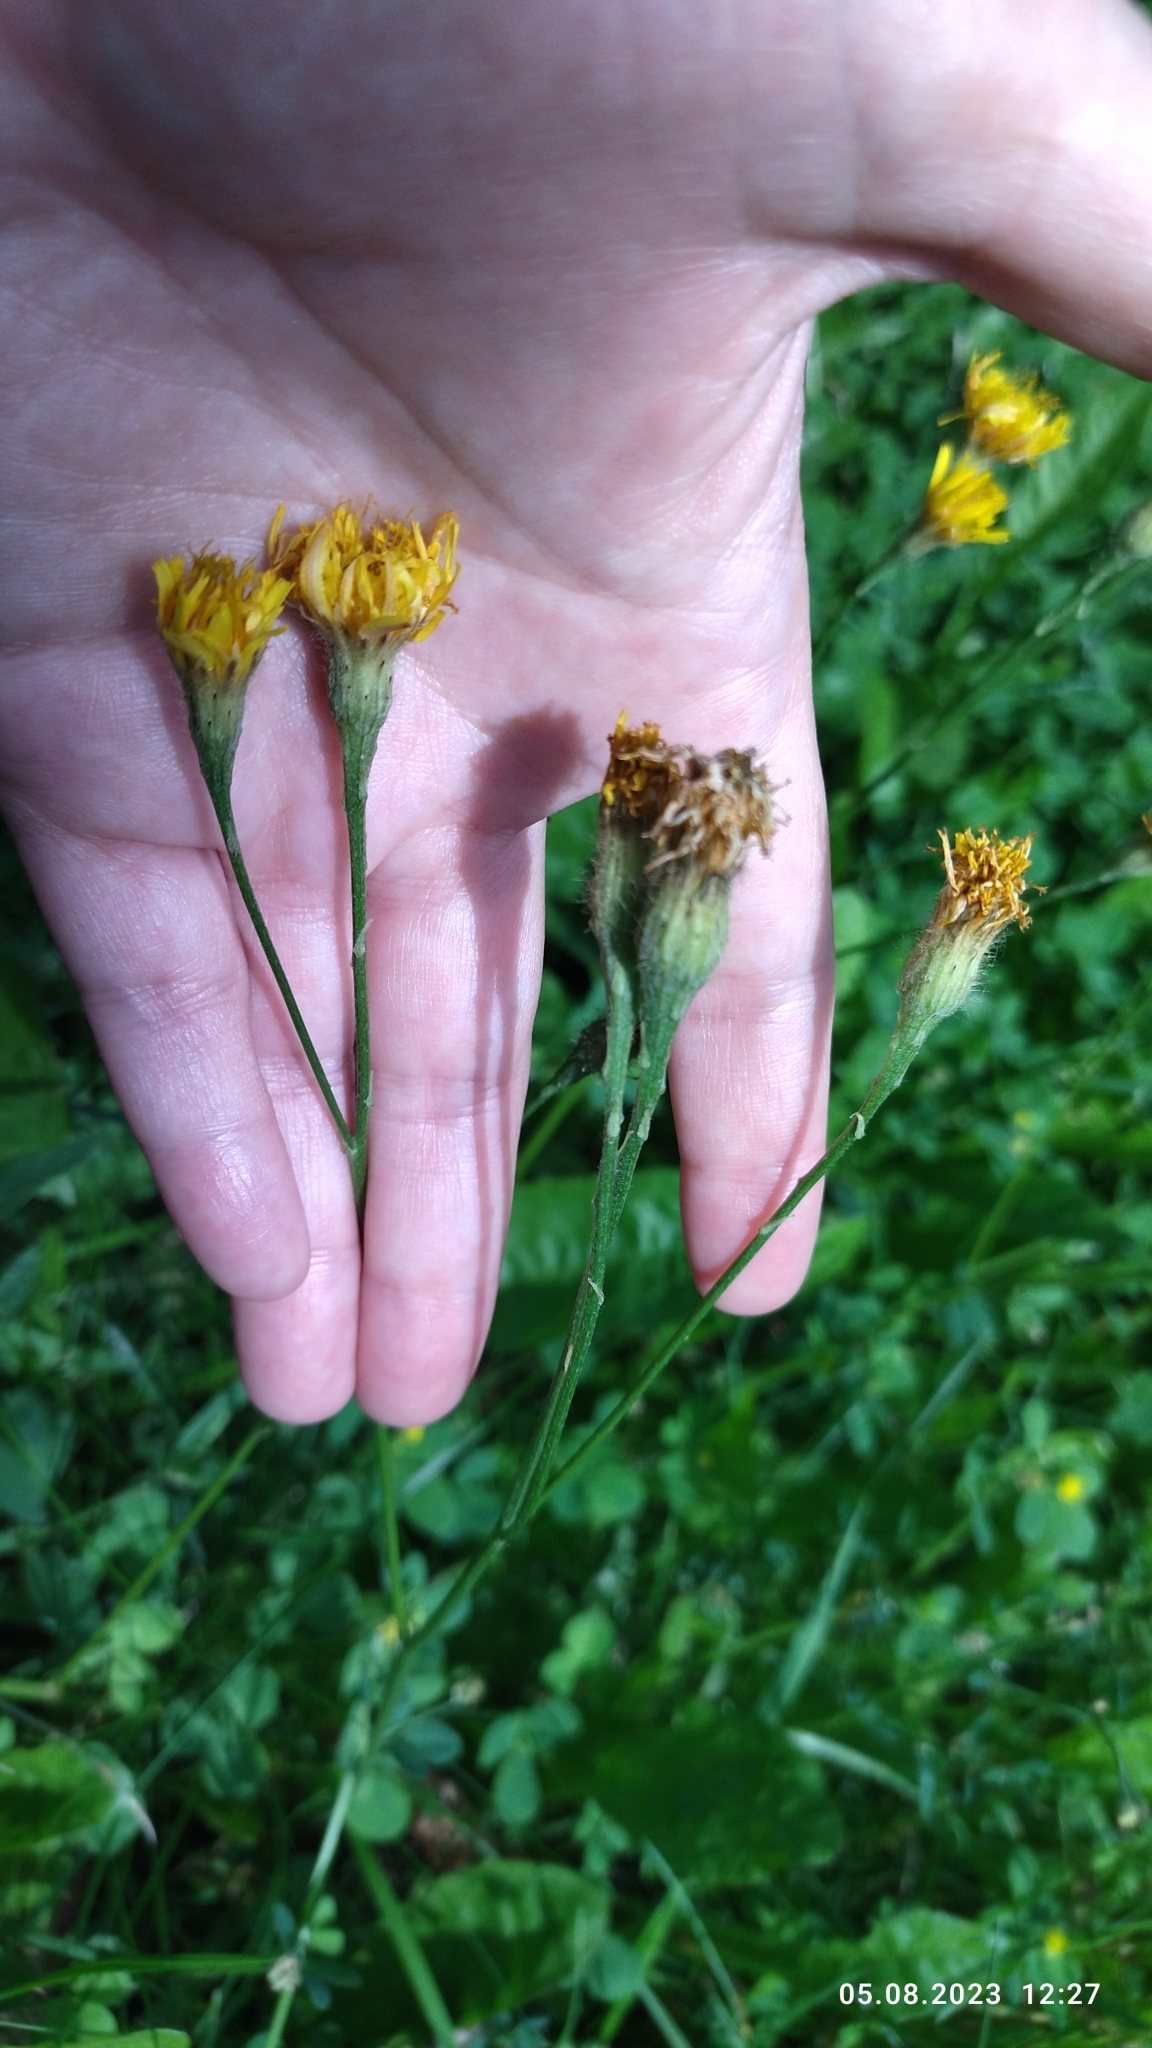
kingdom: Plantae
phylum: Tracheophyta
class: Magnoliopsida
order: Asterales
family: Asteraceae
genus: Scorzoneroides
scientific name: Scorzoneroides autumnalis
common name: Autumn hawkbit
